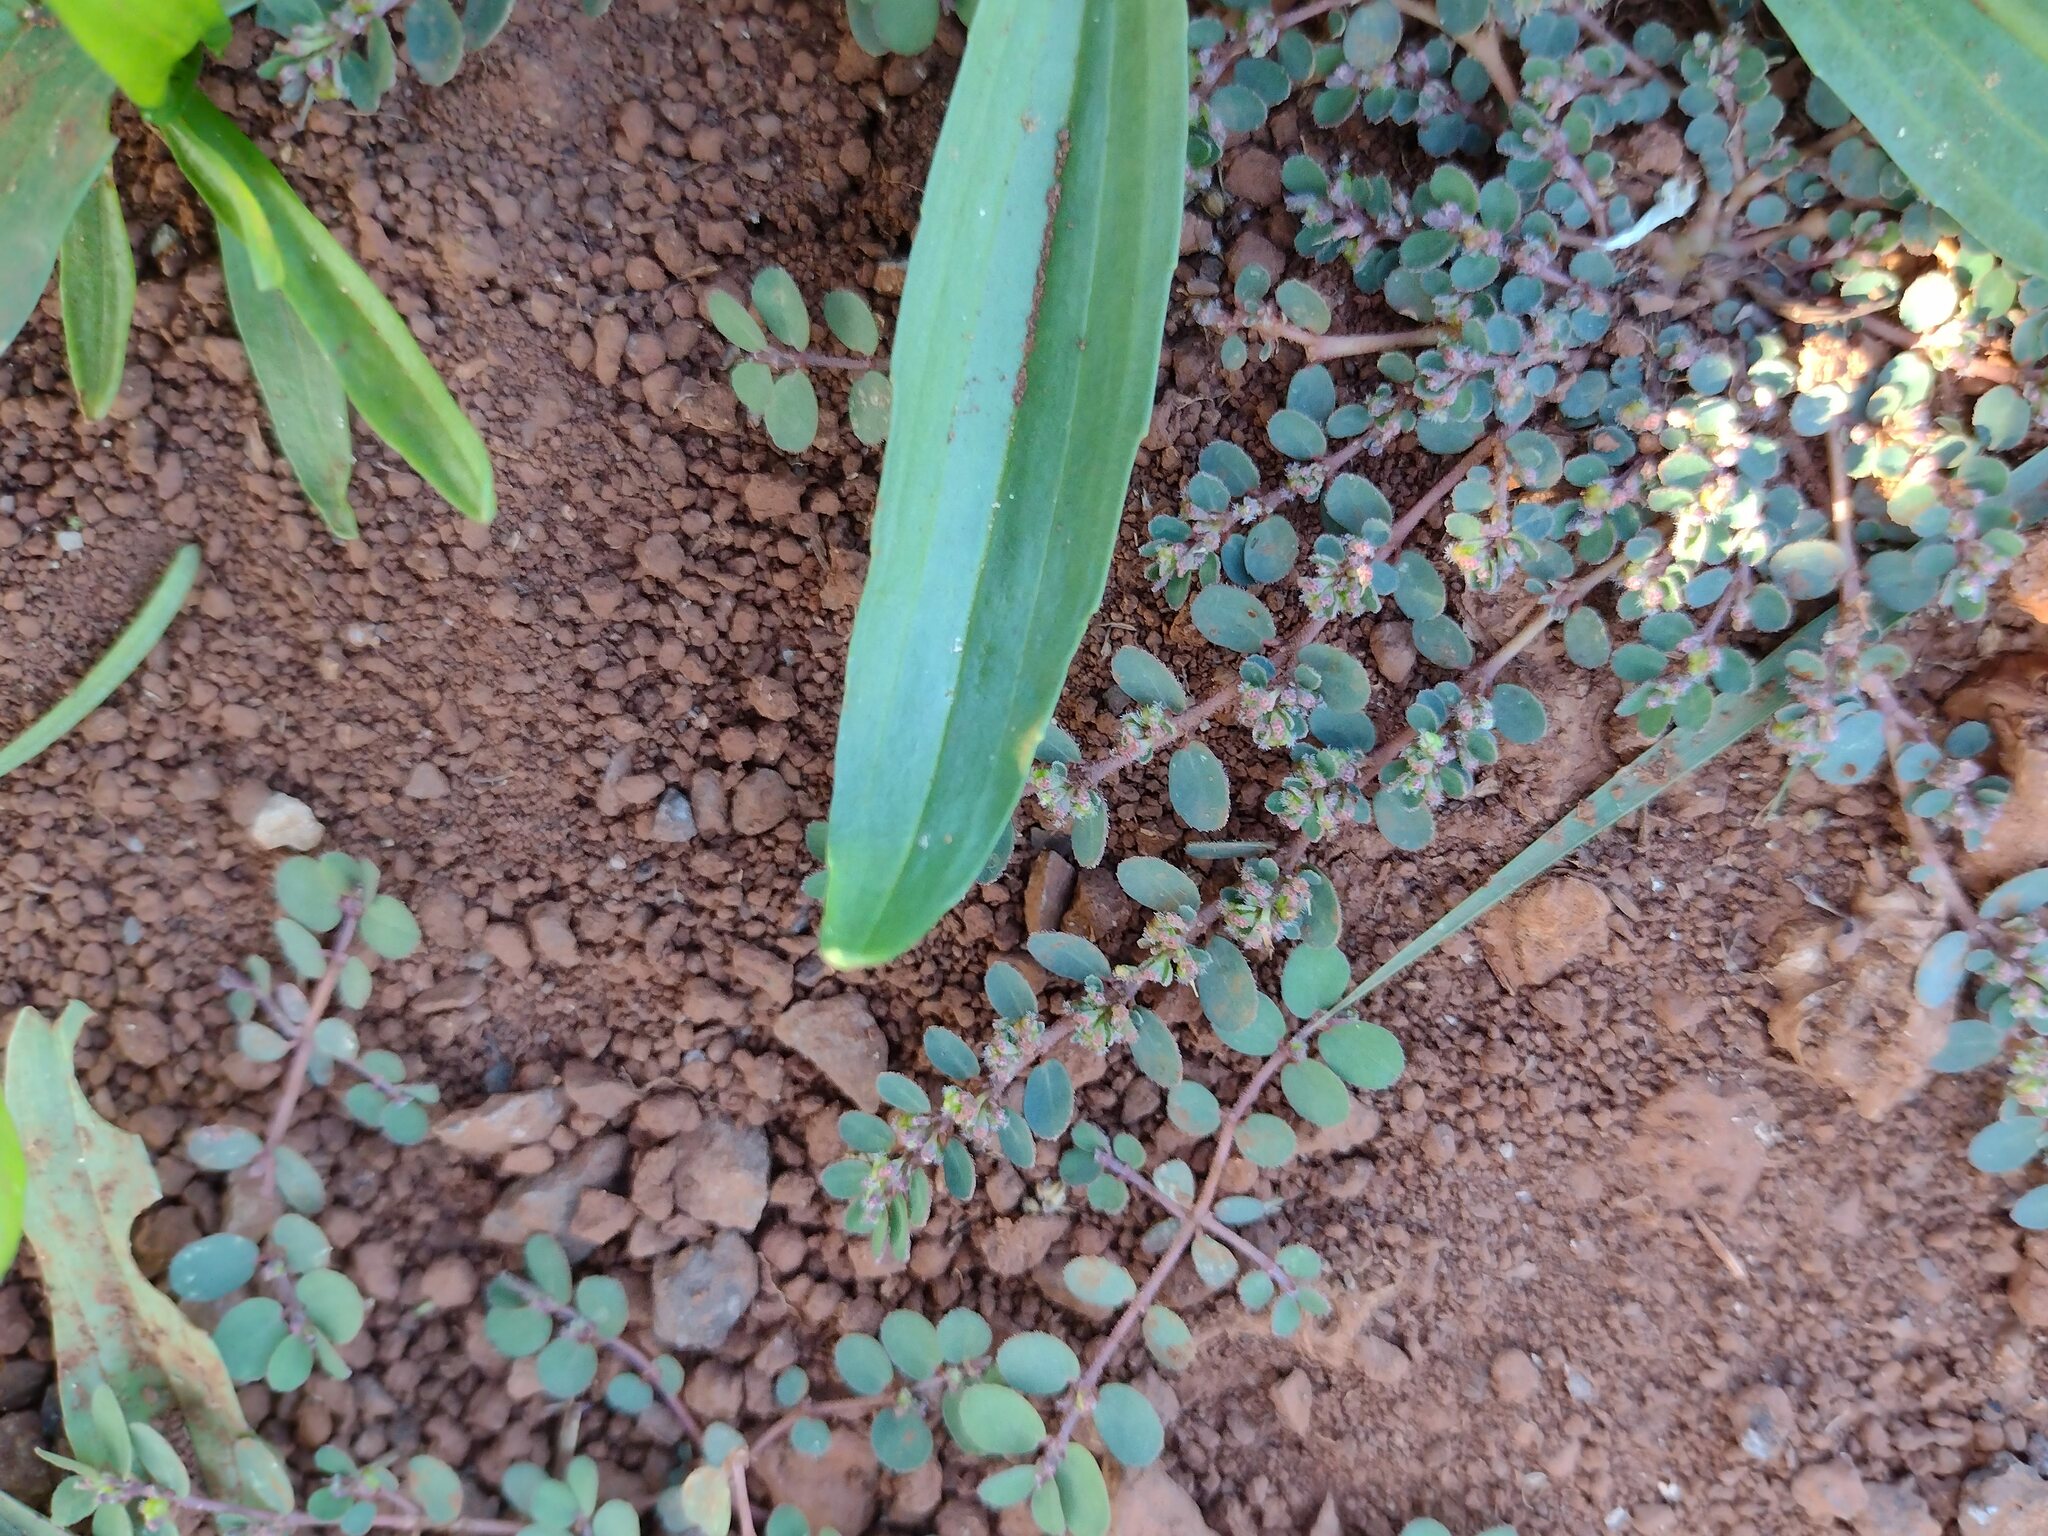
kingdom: Plantae
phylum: Tracheophyta
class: Magnoliopsida
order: Malpighiales
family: Euphorbiaceae
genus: Euphorbia
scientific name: Euphorbia prostrata
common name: Prostrate sandmat
